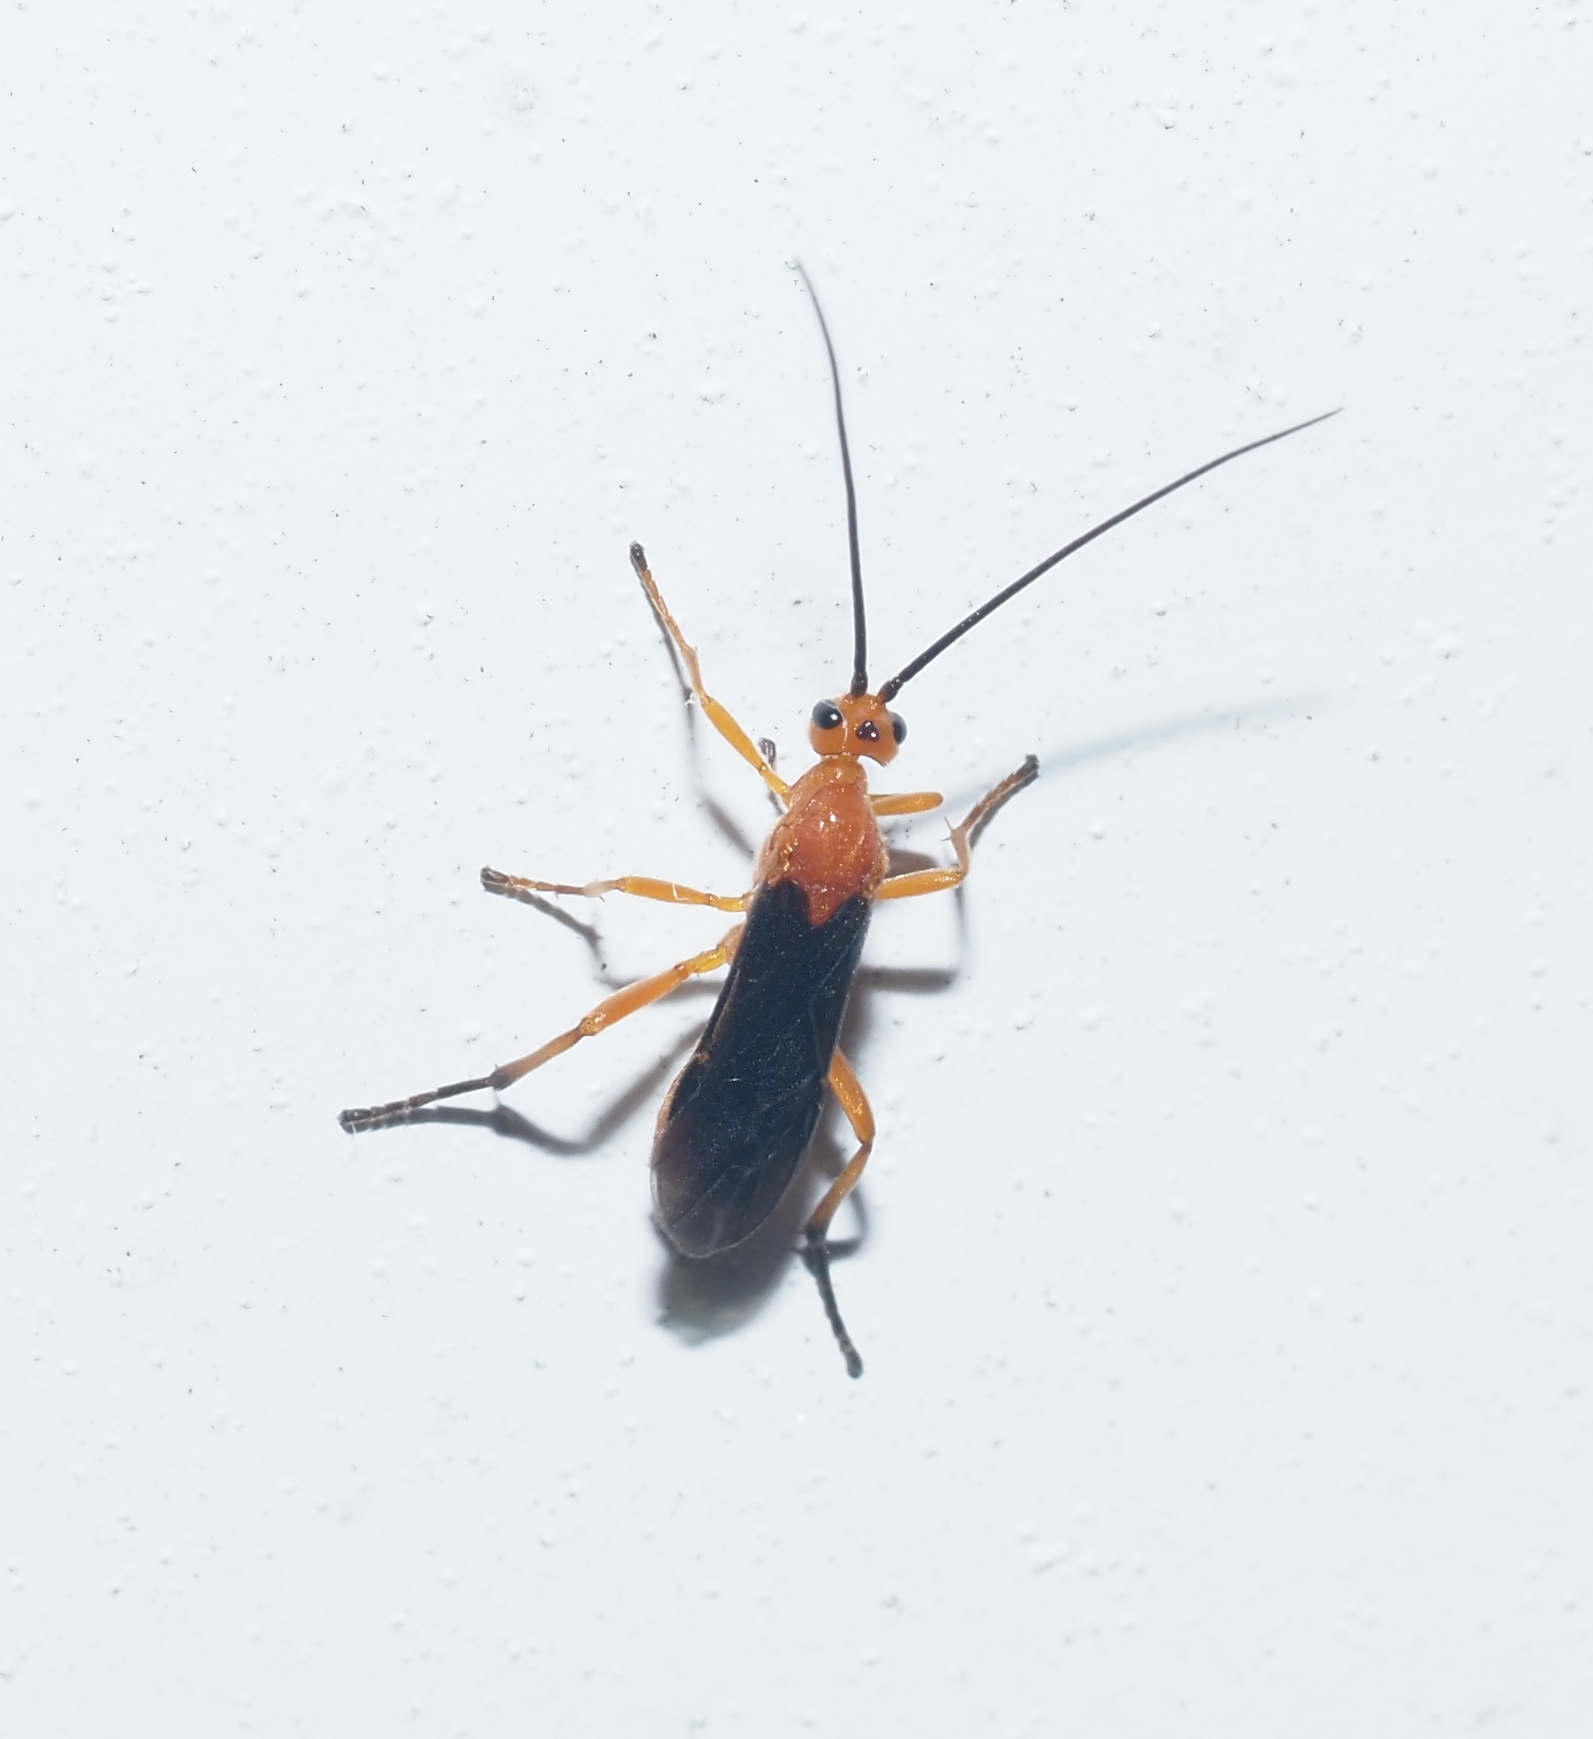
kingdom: Animalia
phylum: Arthropoda
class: Insecta
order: Hymenoptera
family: Braconidae
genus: Aleiodes
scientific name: Aleiodes politiceps
